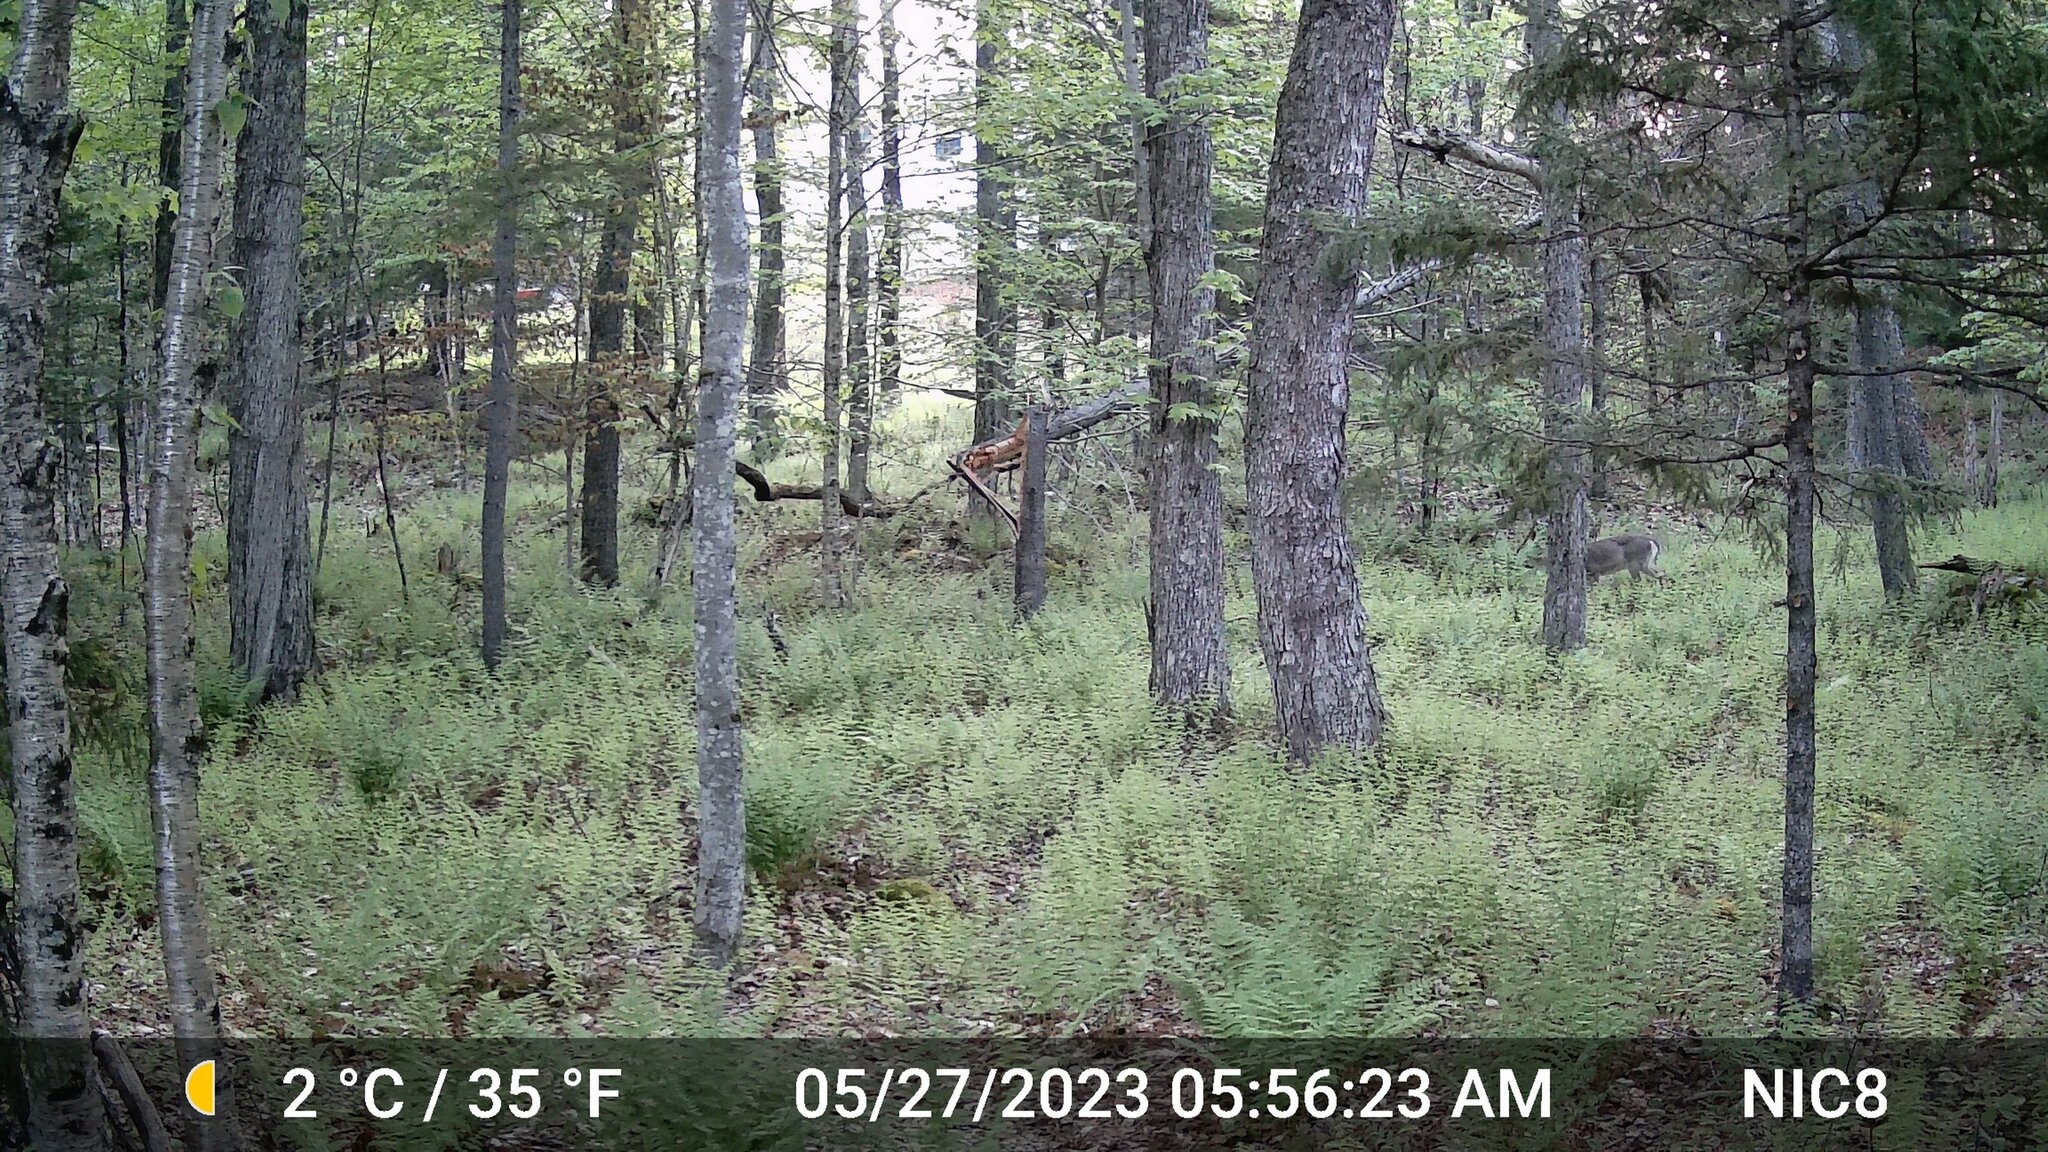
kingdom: Animalia
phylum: Chordata
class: Mammalia
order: Artiodactyla
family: Cervidae
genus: Odocoileus
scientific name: Odocoileus virginianus
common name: White-tailed deer
